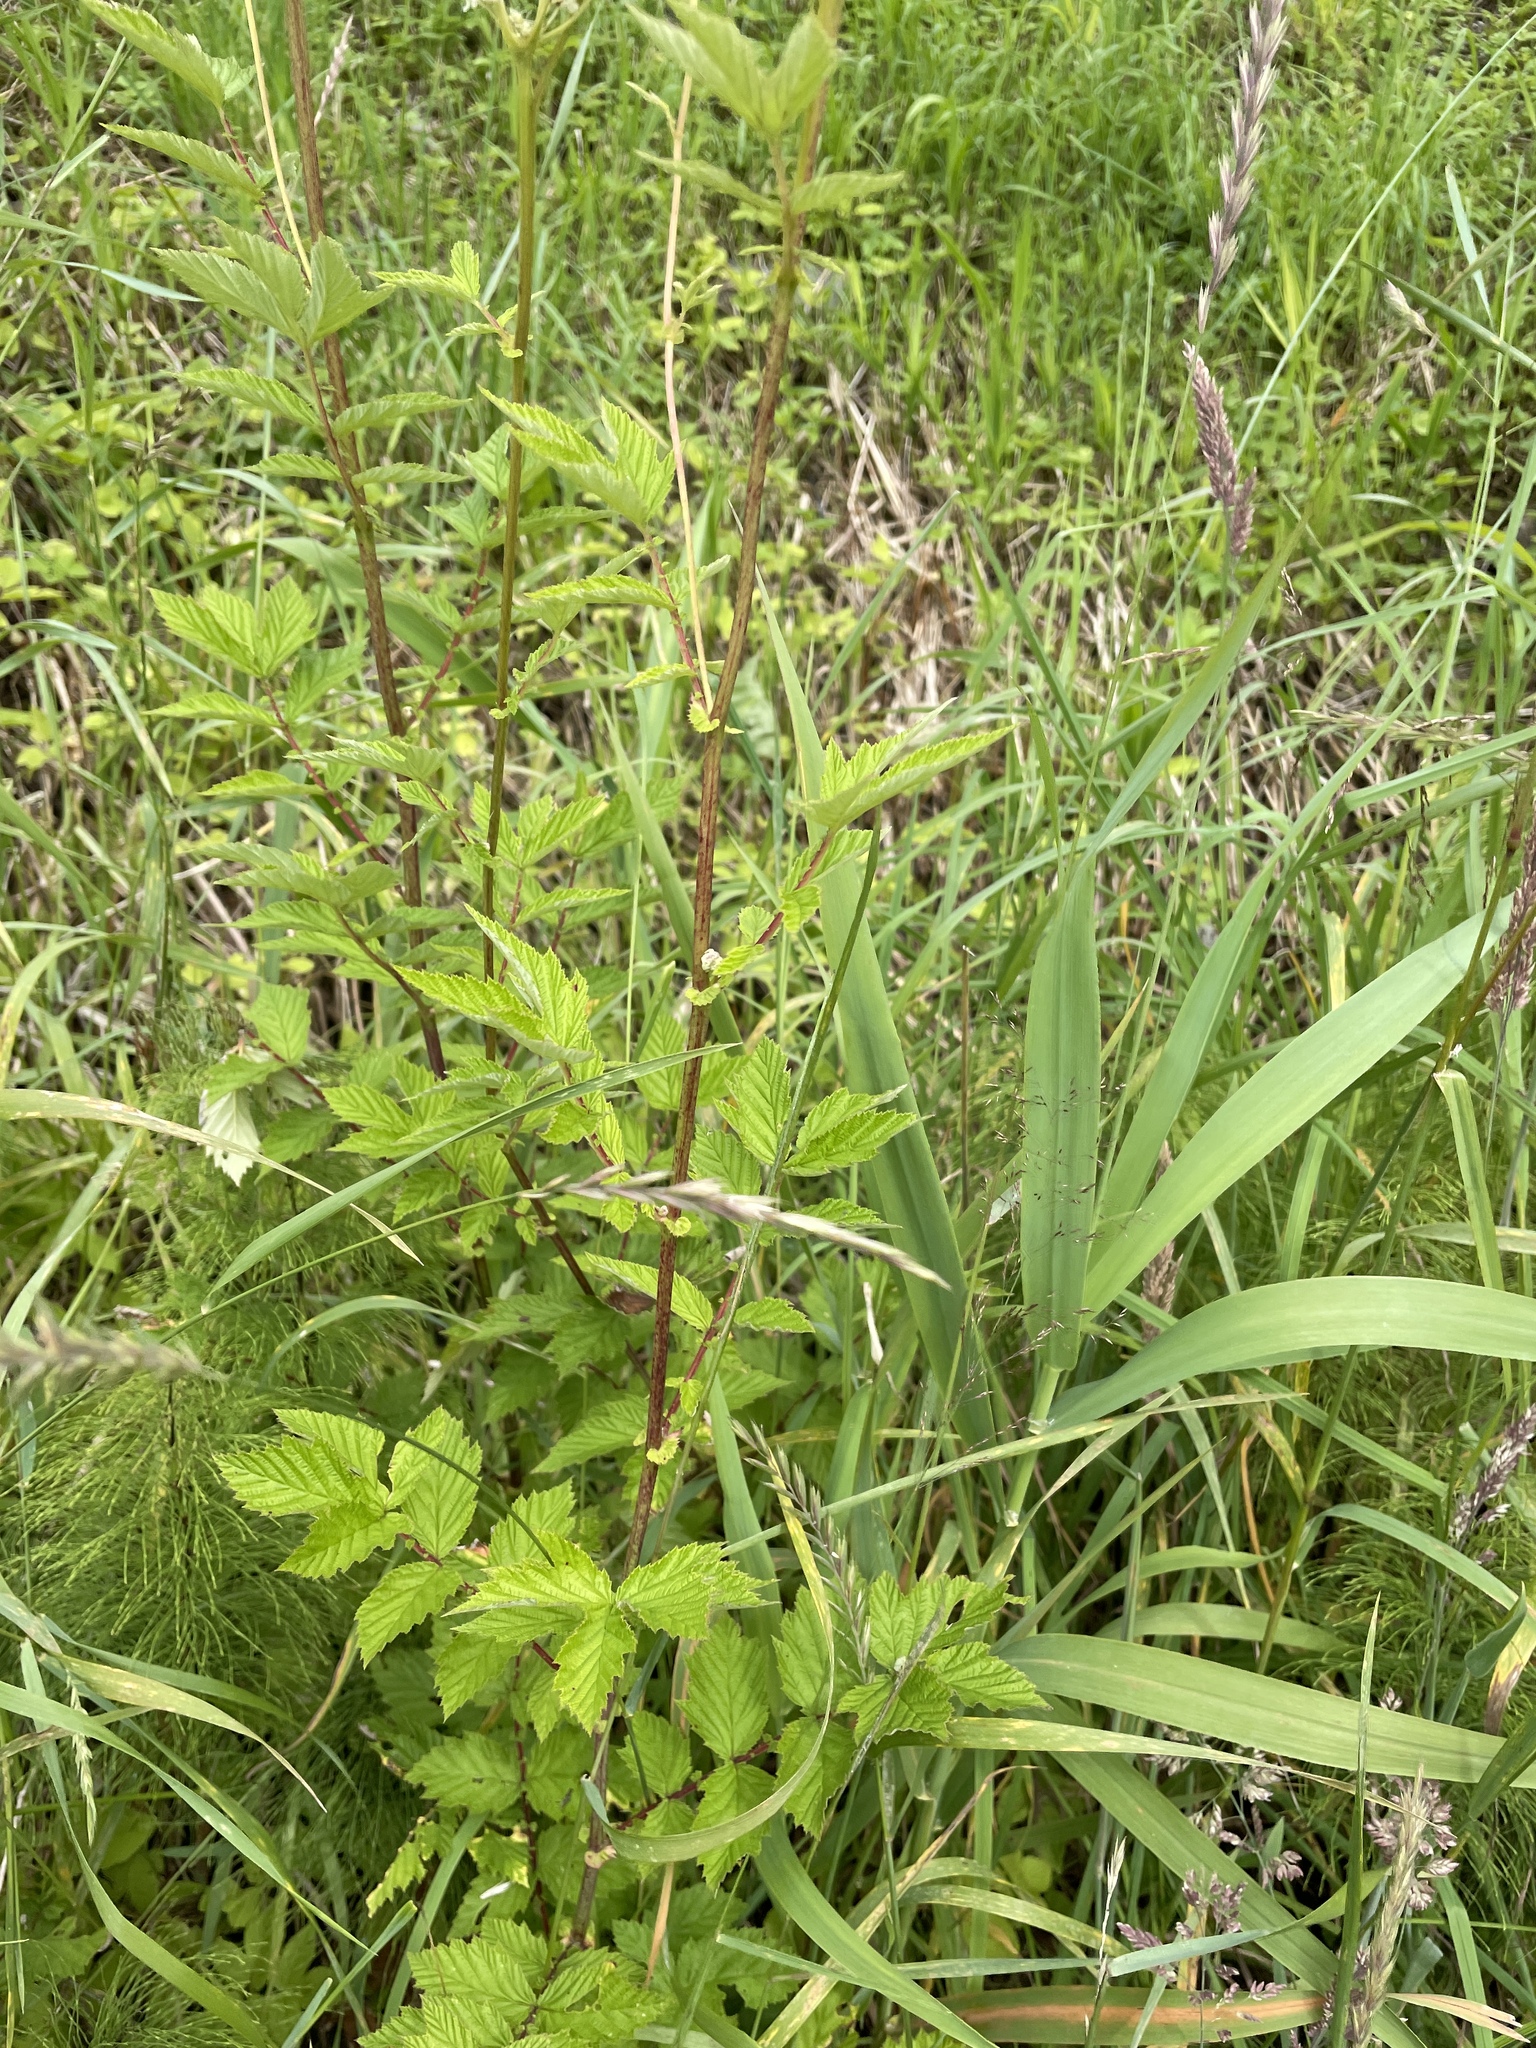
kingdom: Plantae
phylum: Tracheophyta
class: Magnoliopsida
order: Rosales
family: Rosaceae
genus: Filipendula
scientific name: Filipendula ulmaria
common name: Meadowsweet
